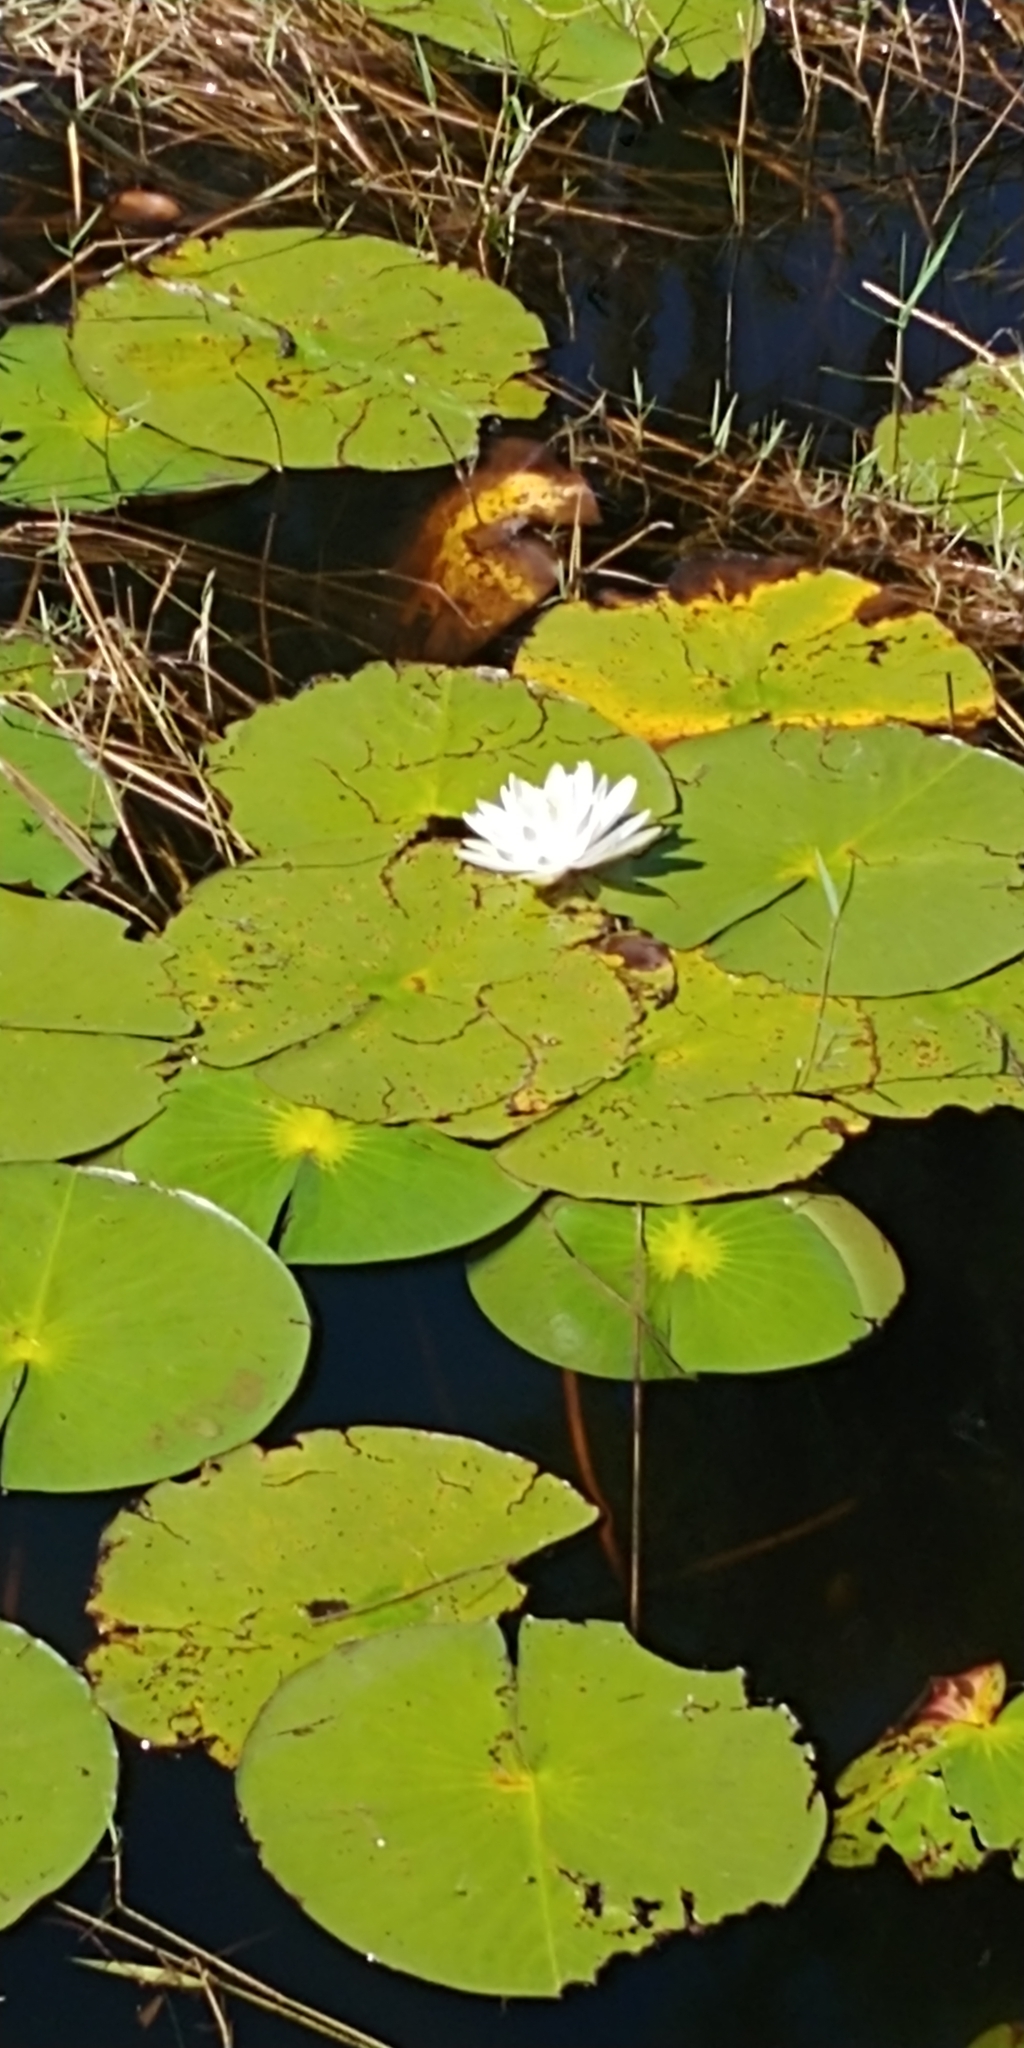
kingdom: Plantae
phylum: Tracheophyta
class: Magnoliopsida
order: Nymphaeales
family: Nymphaeaceae
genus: Nymphaea
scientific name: Nymphaea odorata
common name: Fragrant water-lily
